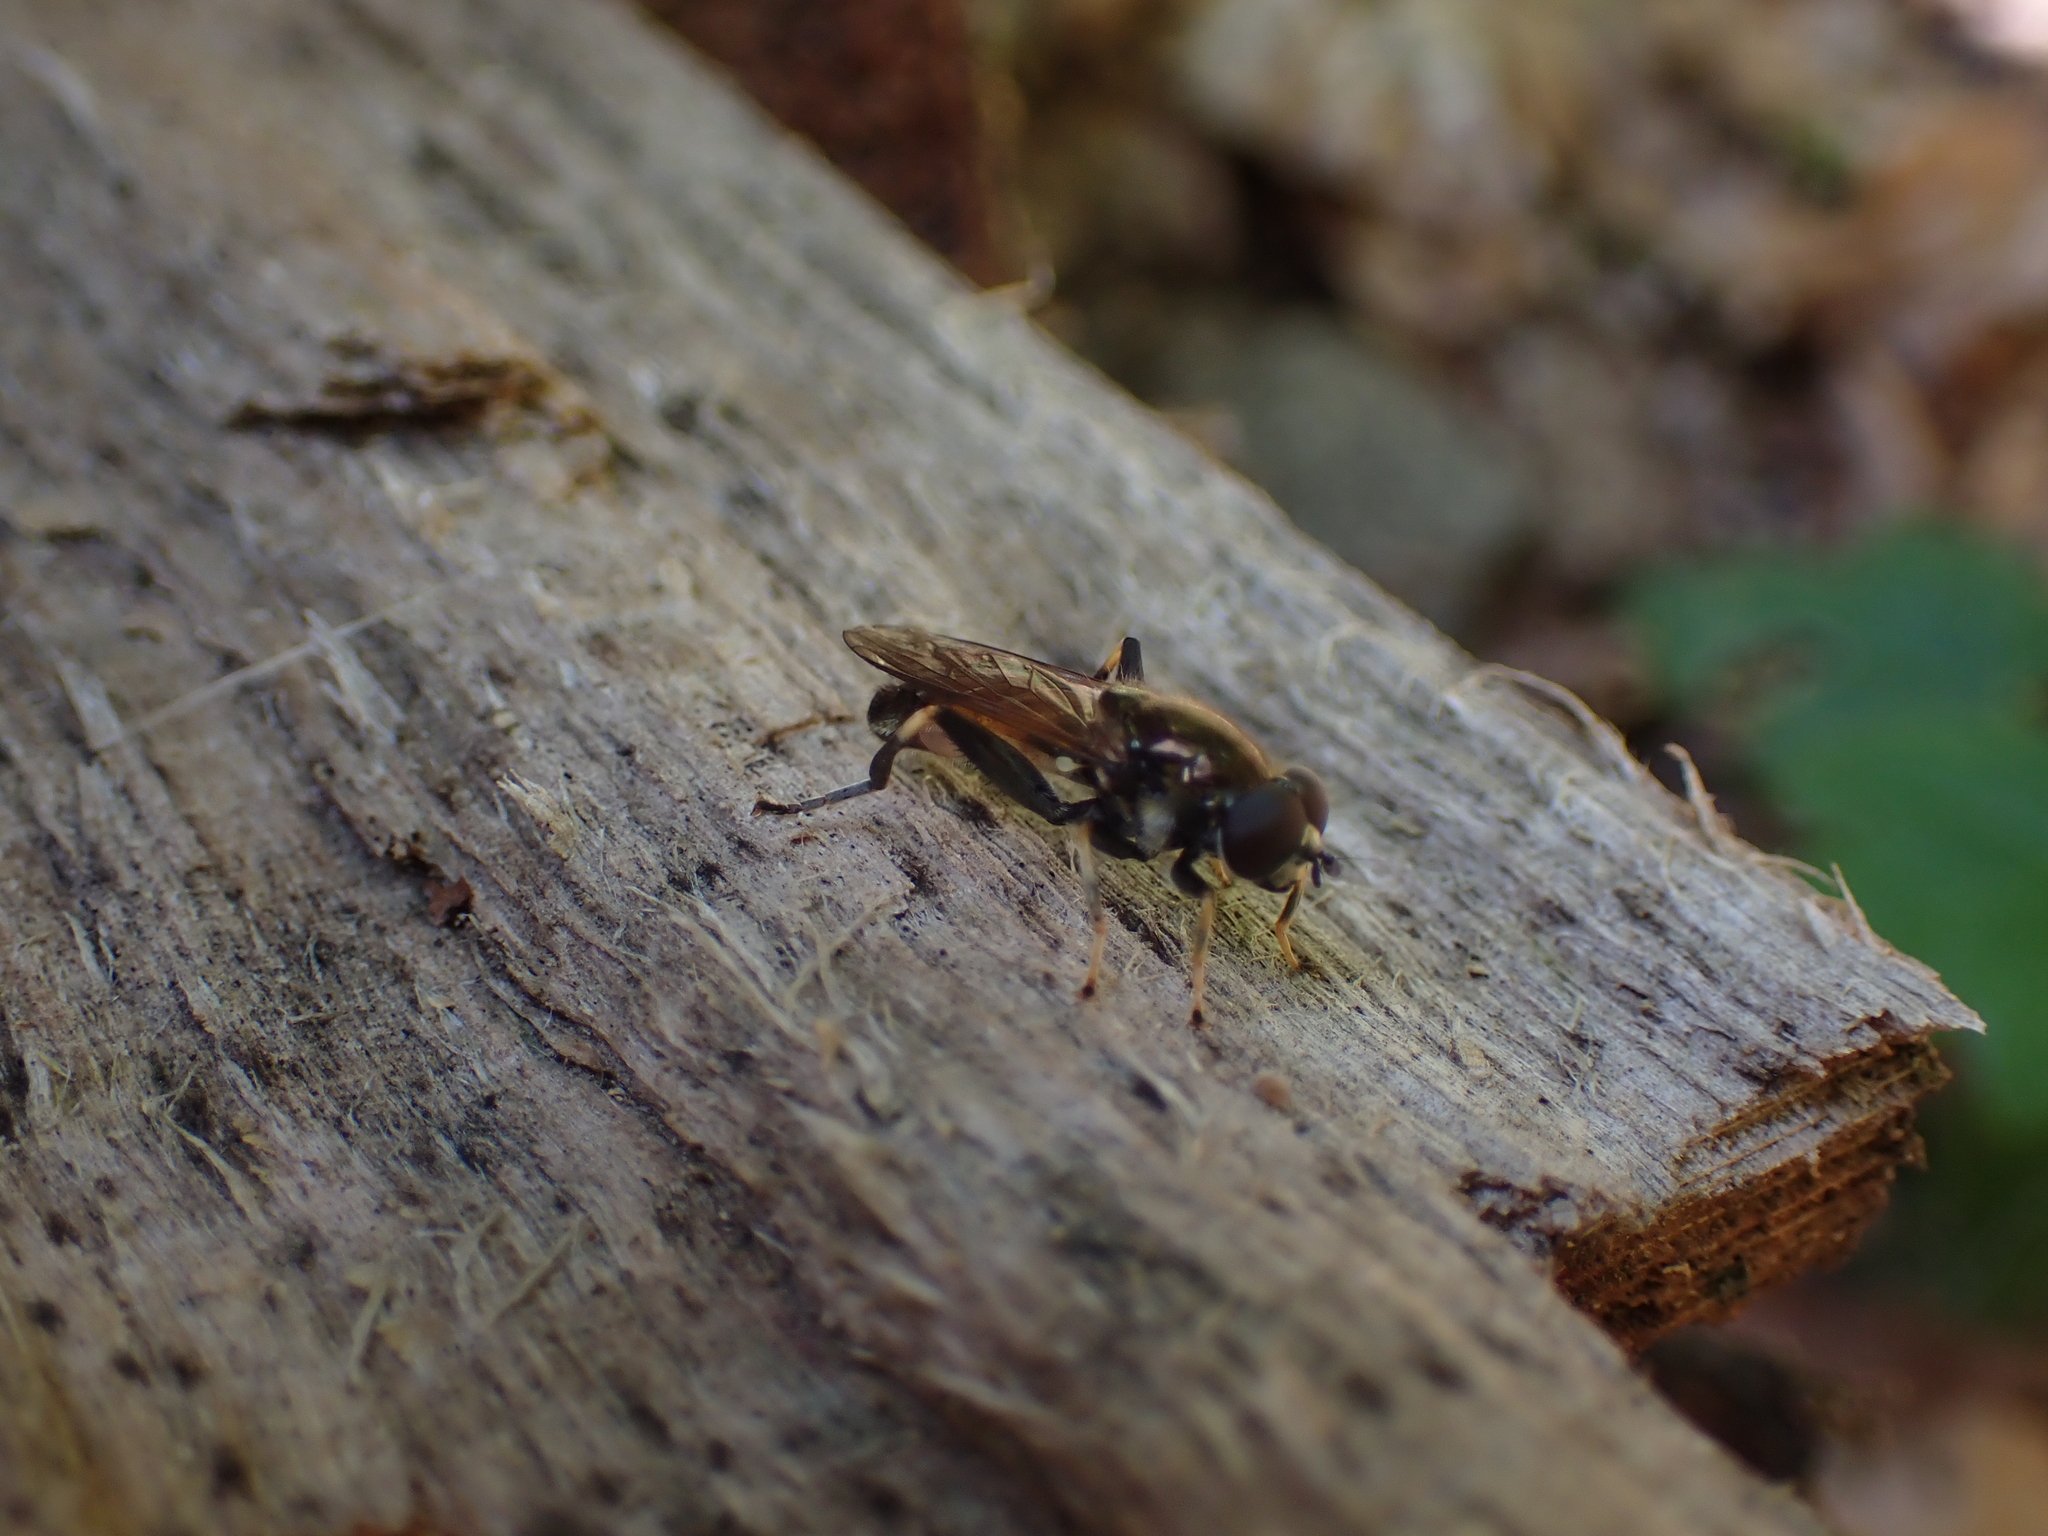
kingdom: Animalia
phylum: Arthropoda
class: Insecta
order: Diptera
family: Syrphidae
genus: Xylota
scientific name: Xylota segnis
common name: Brown-toed forest fly
